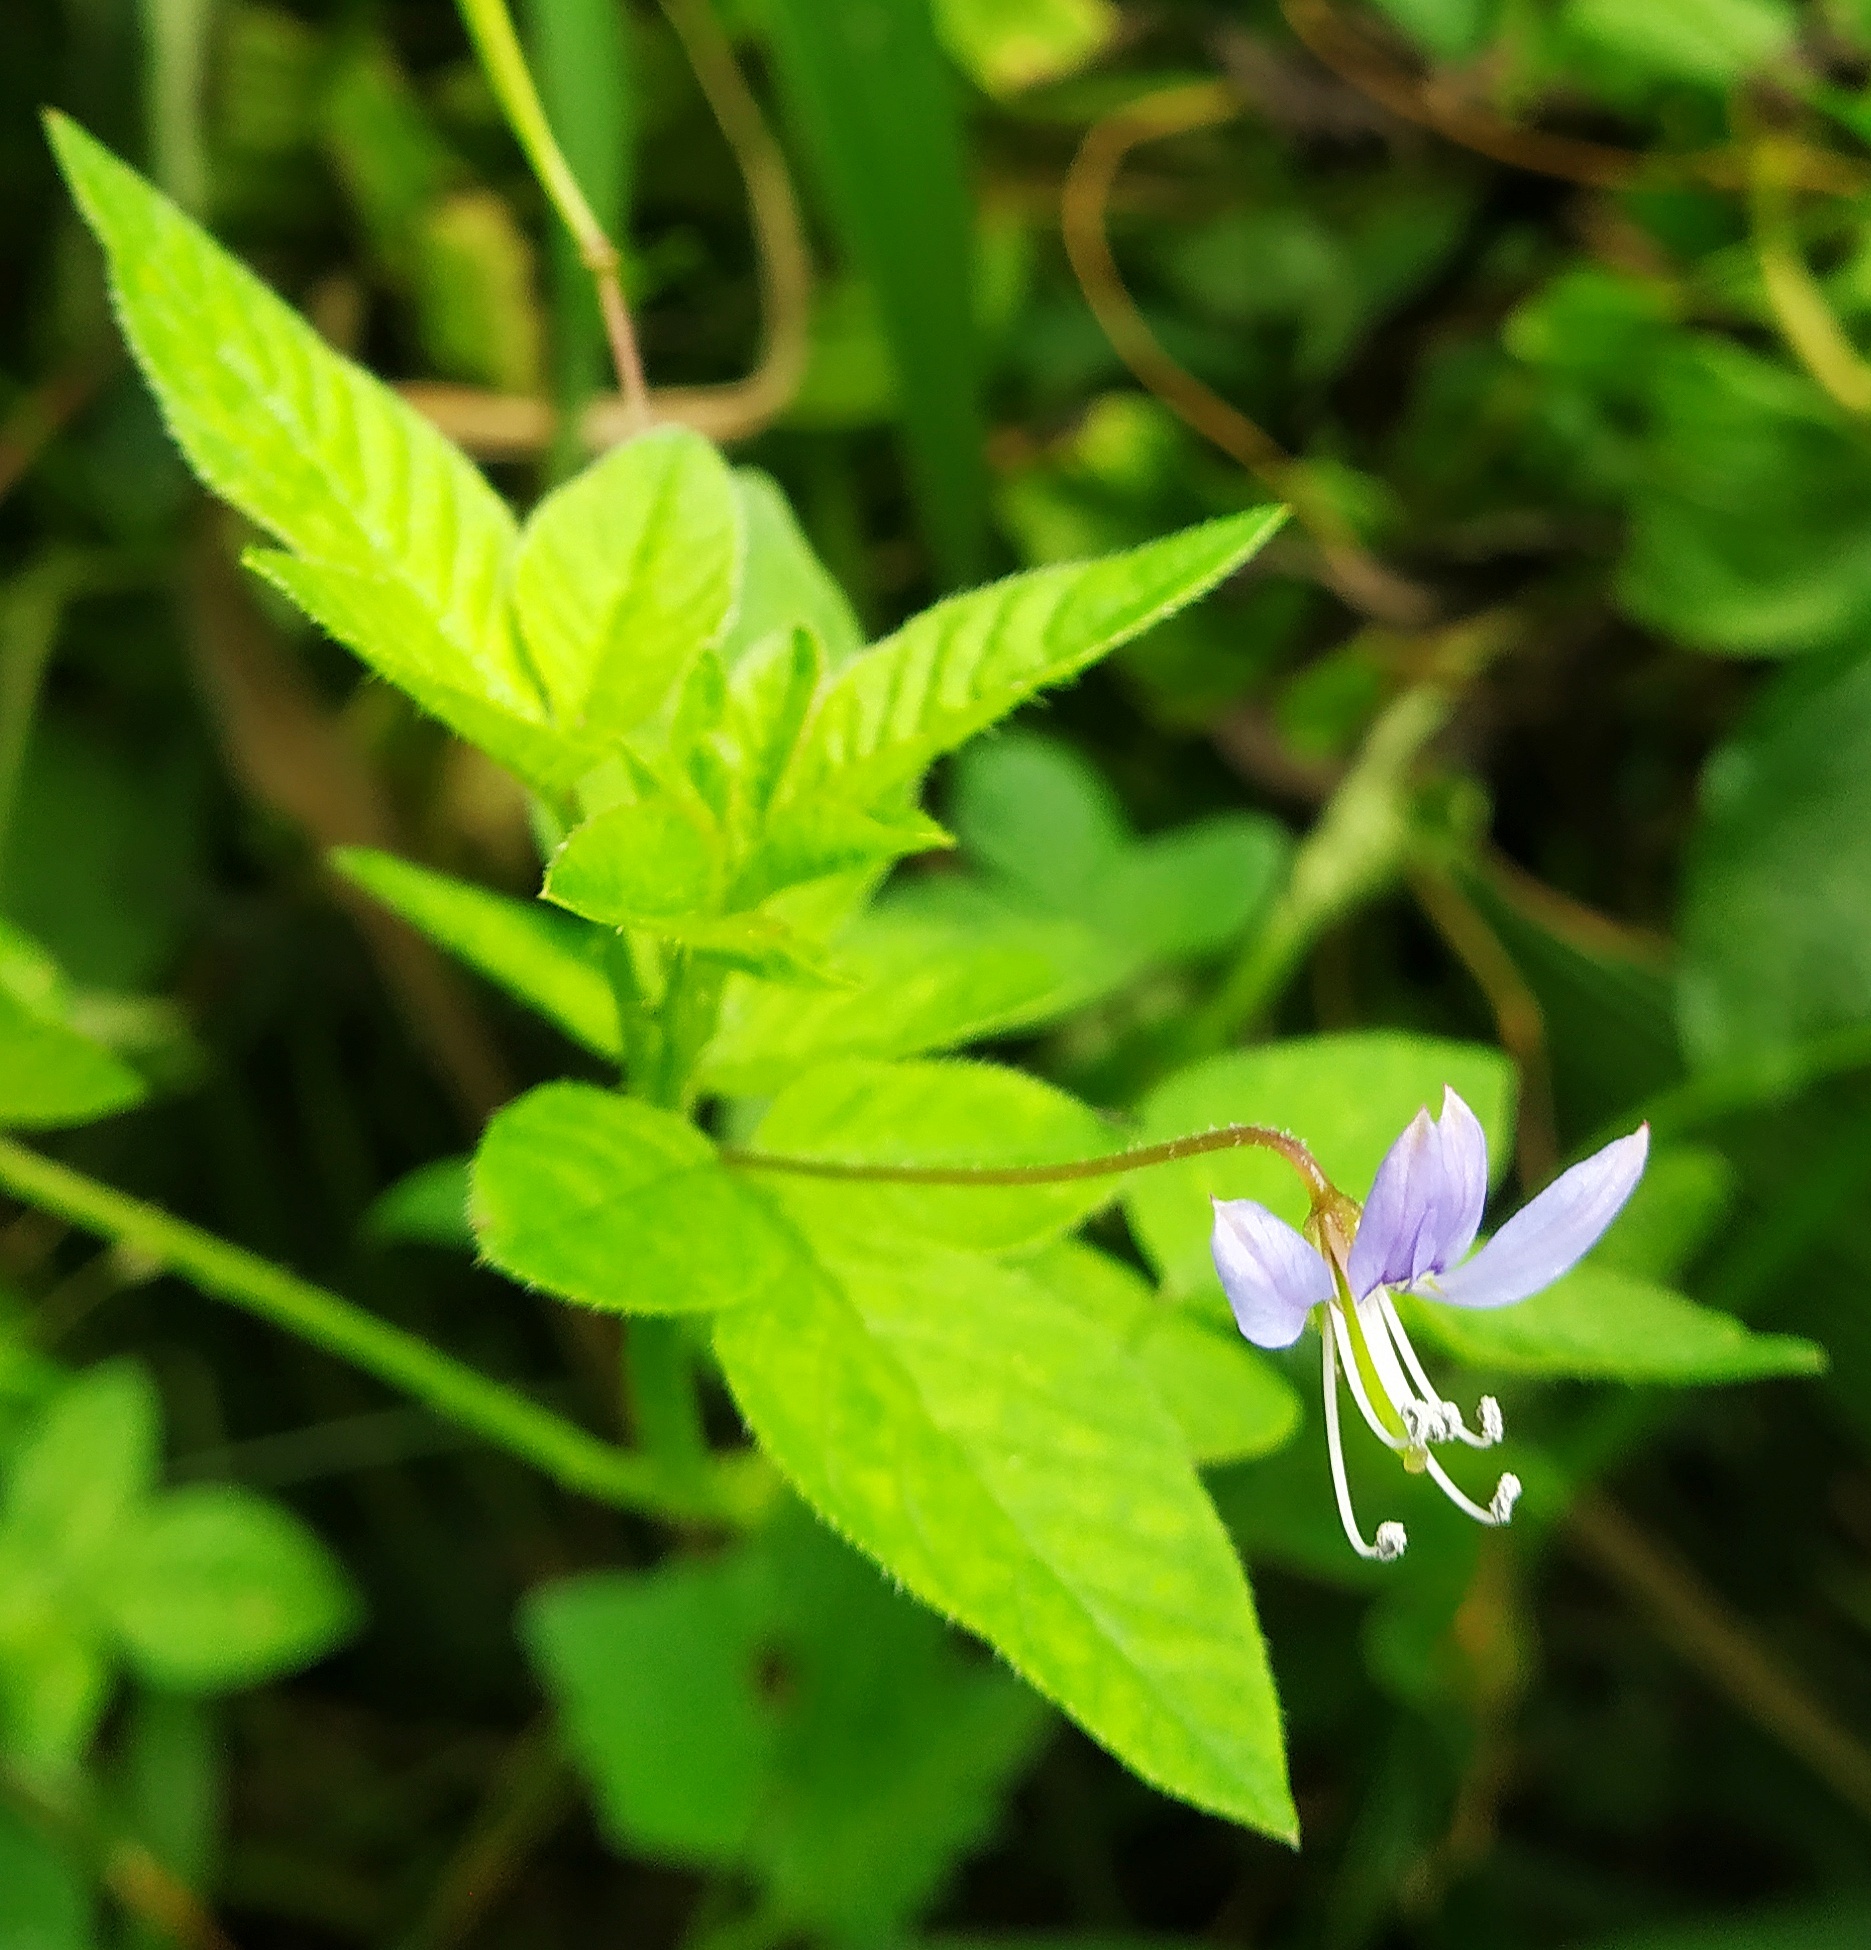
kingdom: Plantae
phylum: Tracheophyta
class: Magnoliopsida
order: Brassicales
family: Cleomaceae
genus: Sieruela
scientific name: Sieruela rutidosperma
